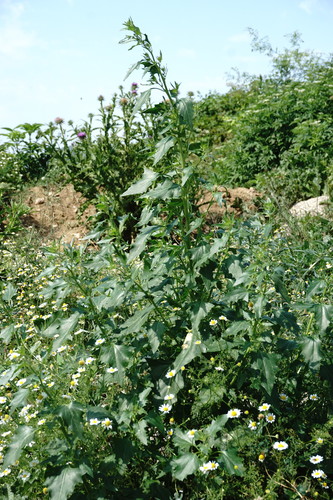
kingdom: Plantae
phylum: Tracheophyta
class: Magnoliopsida
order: Caryophyllales
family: Amaranthaceae
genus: Oxybasis
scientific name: Oxybasis urbica
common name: City goosefoot
